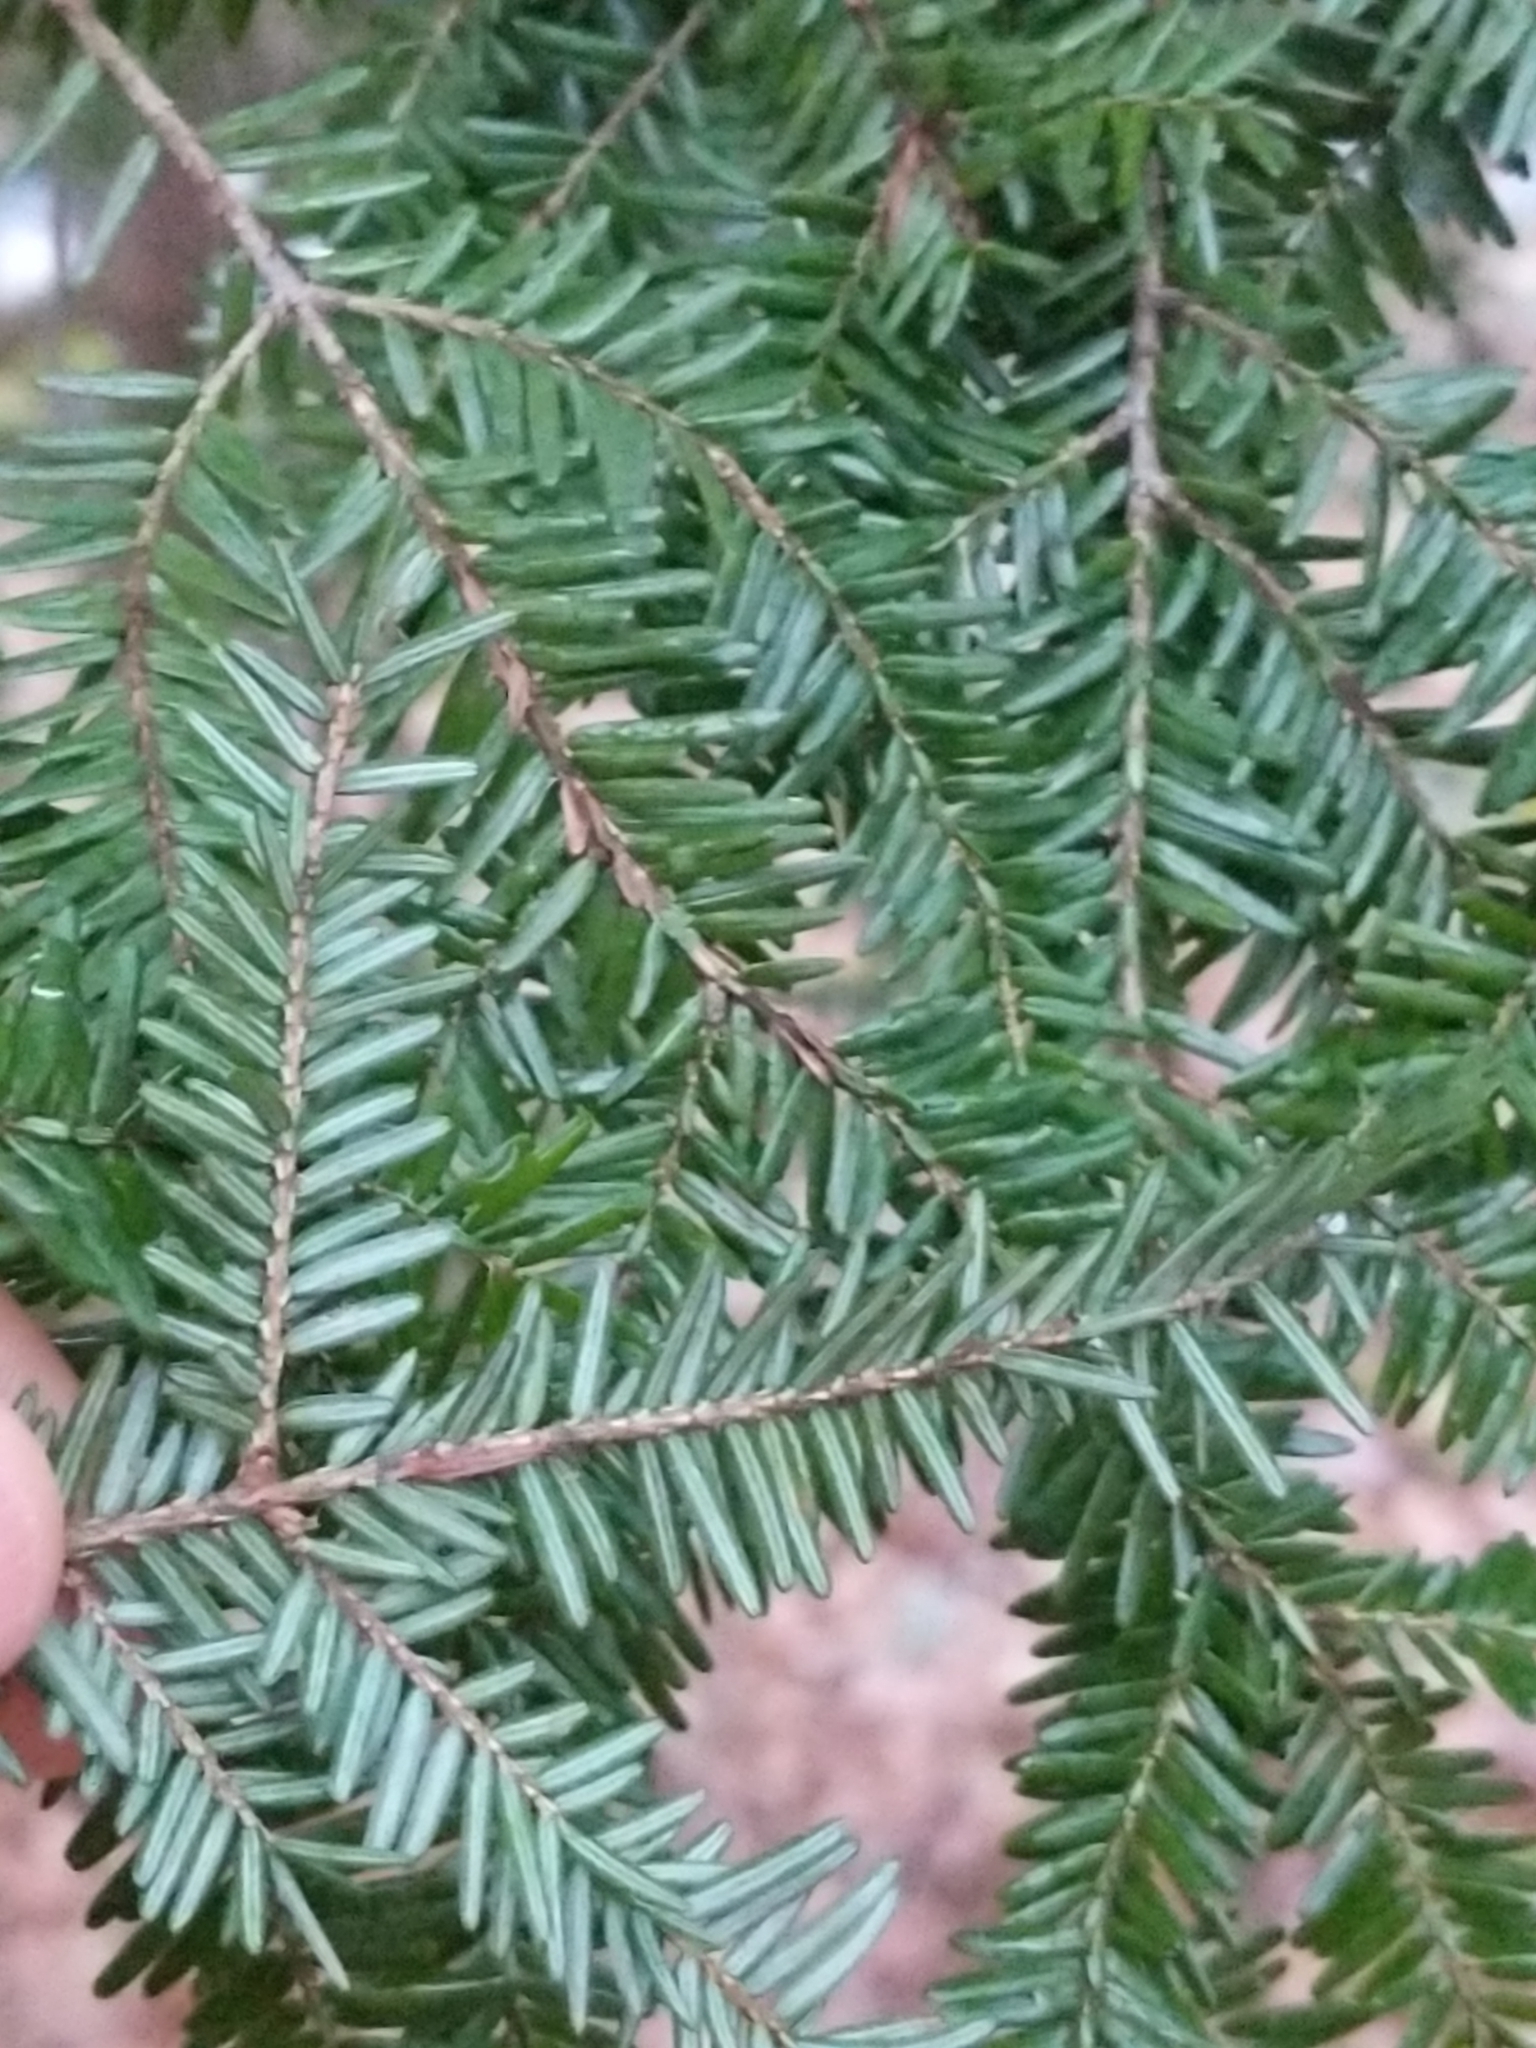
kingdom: Plantae
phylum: Tracheophyta
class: Pinopsida
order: Pinales
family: Pinaceae
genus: Tsuga
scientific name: Tsuga canadensis
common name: Eastern hemlock
